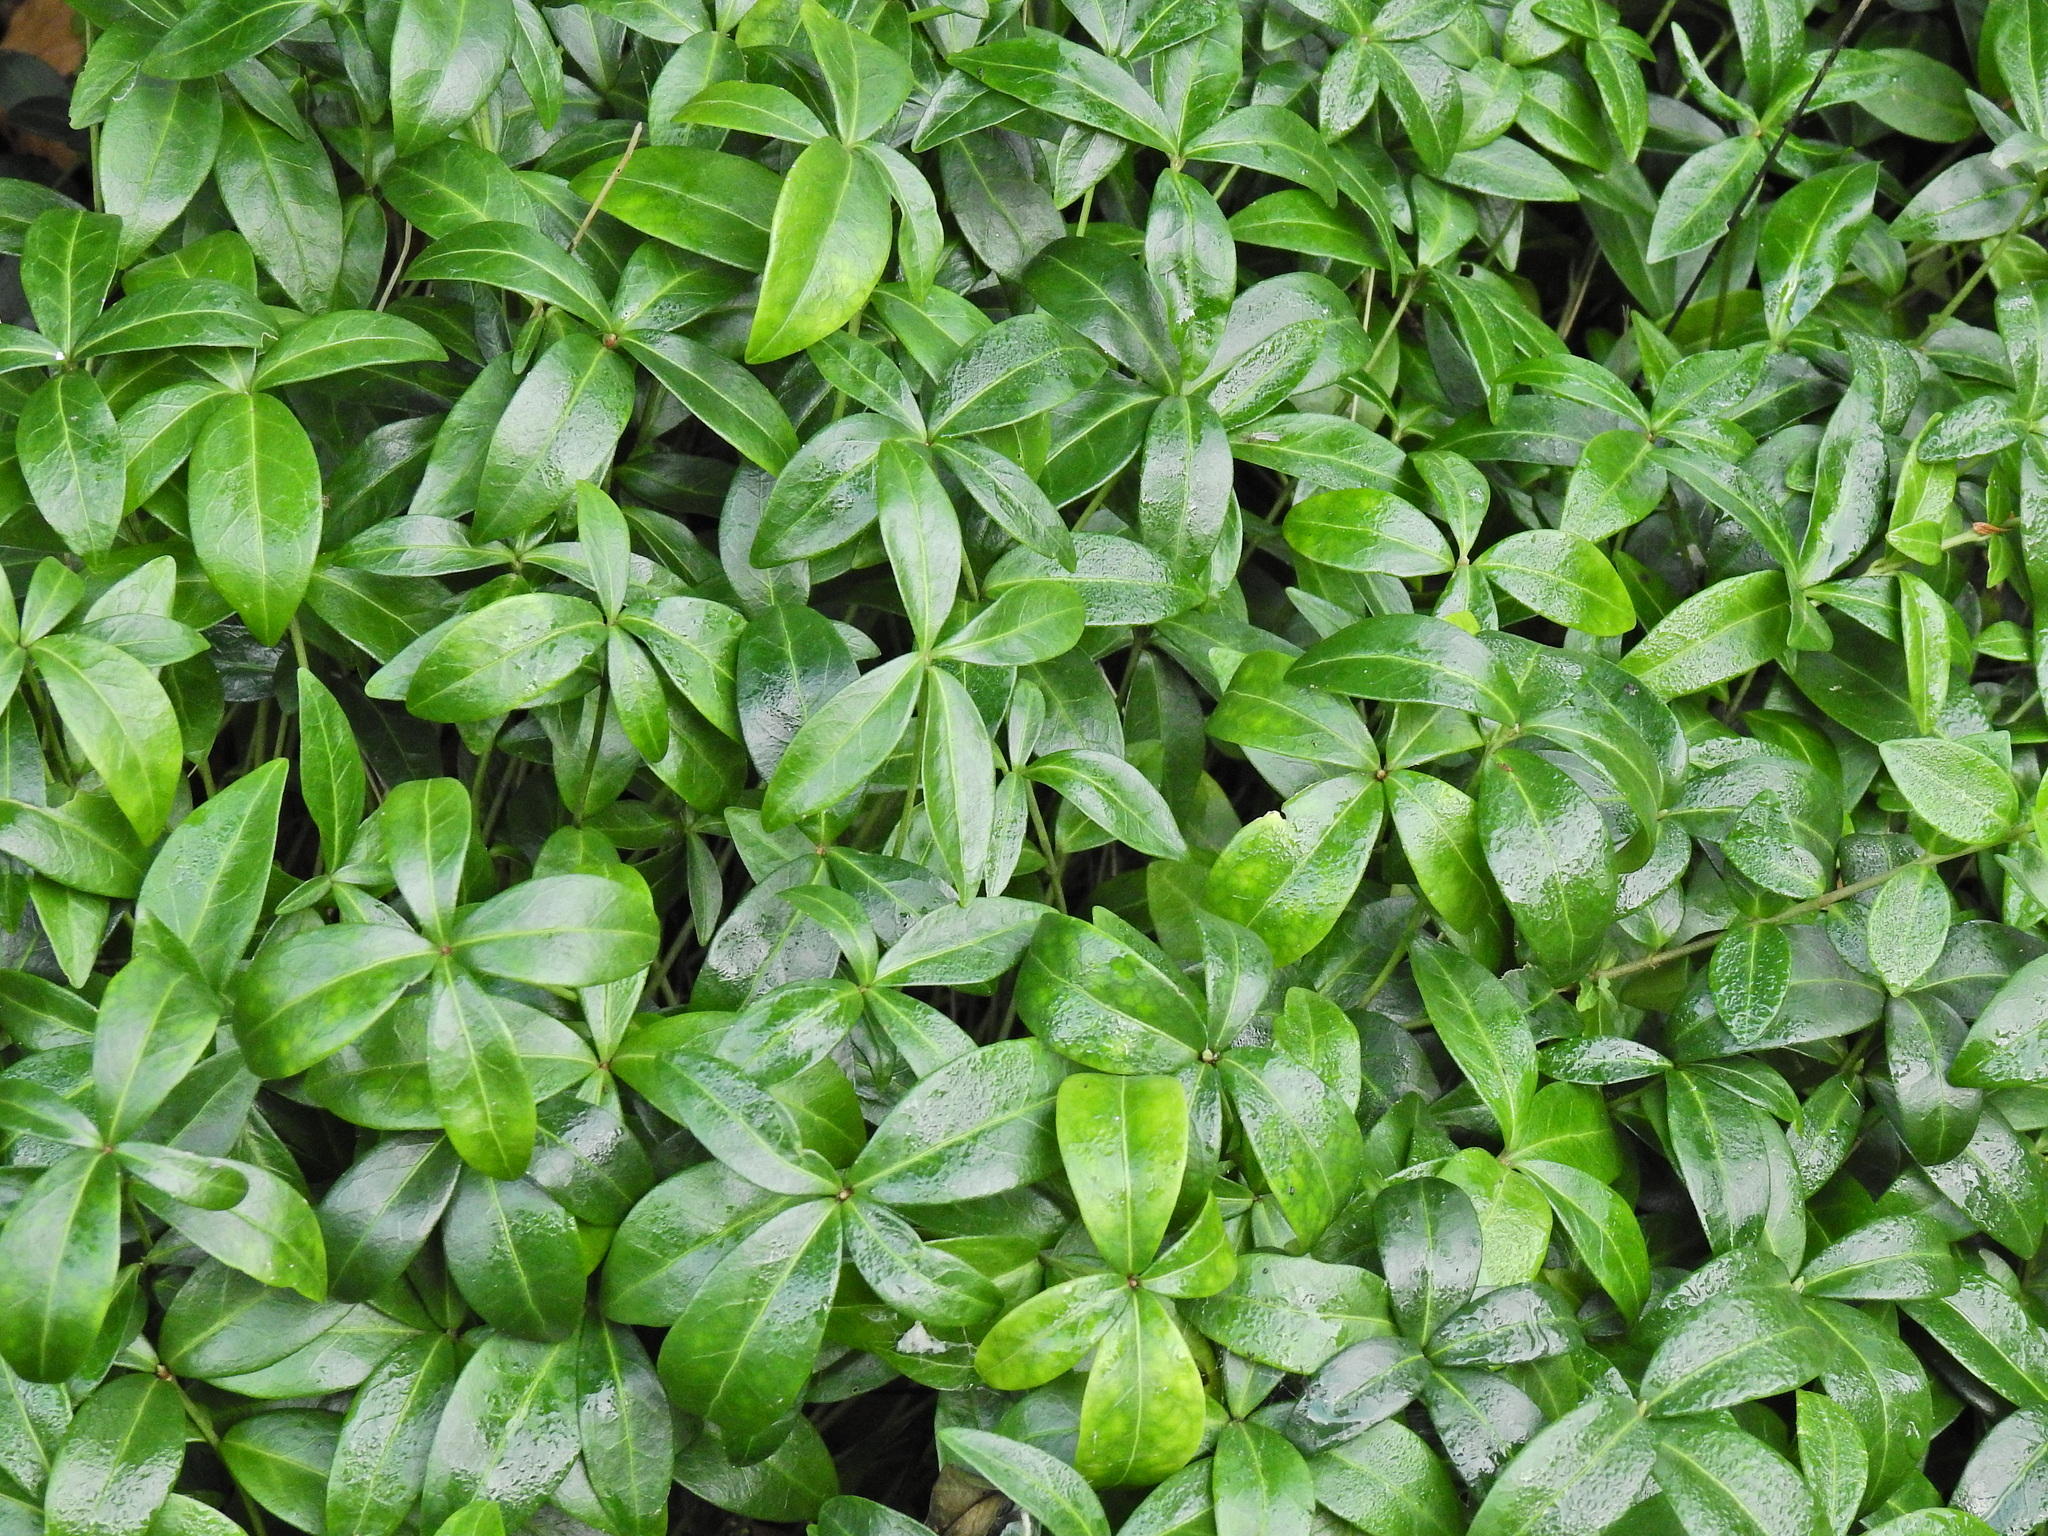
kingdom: Plantae
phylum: Tracheophyta
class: Magnoliopsida
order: Gentianales
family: Apocynaceae
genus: Vinca
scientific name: Vinca minor
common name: Lesser periwinkle
